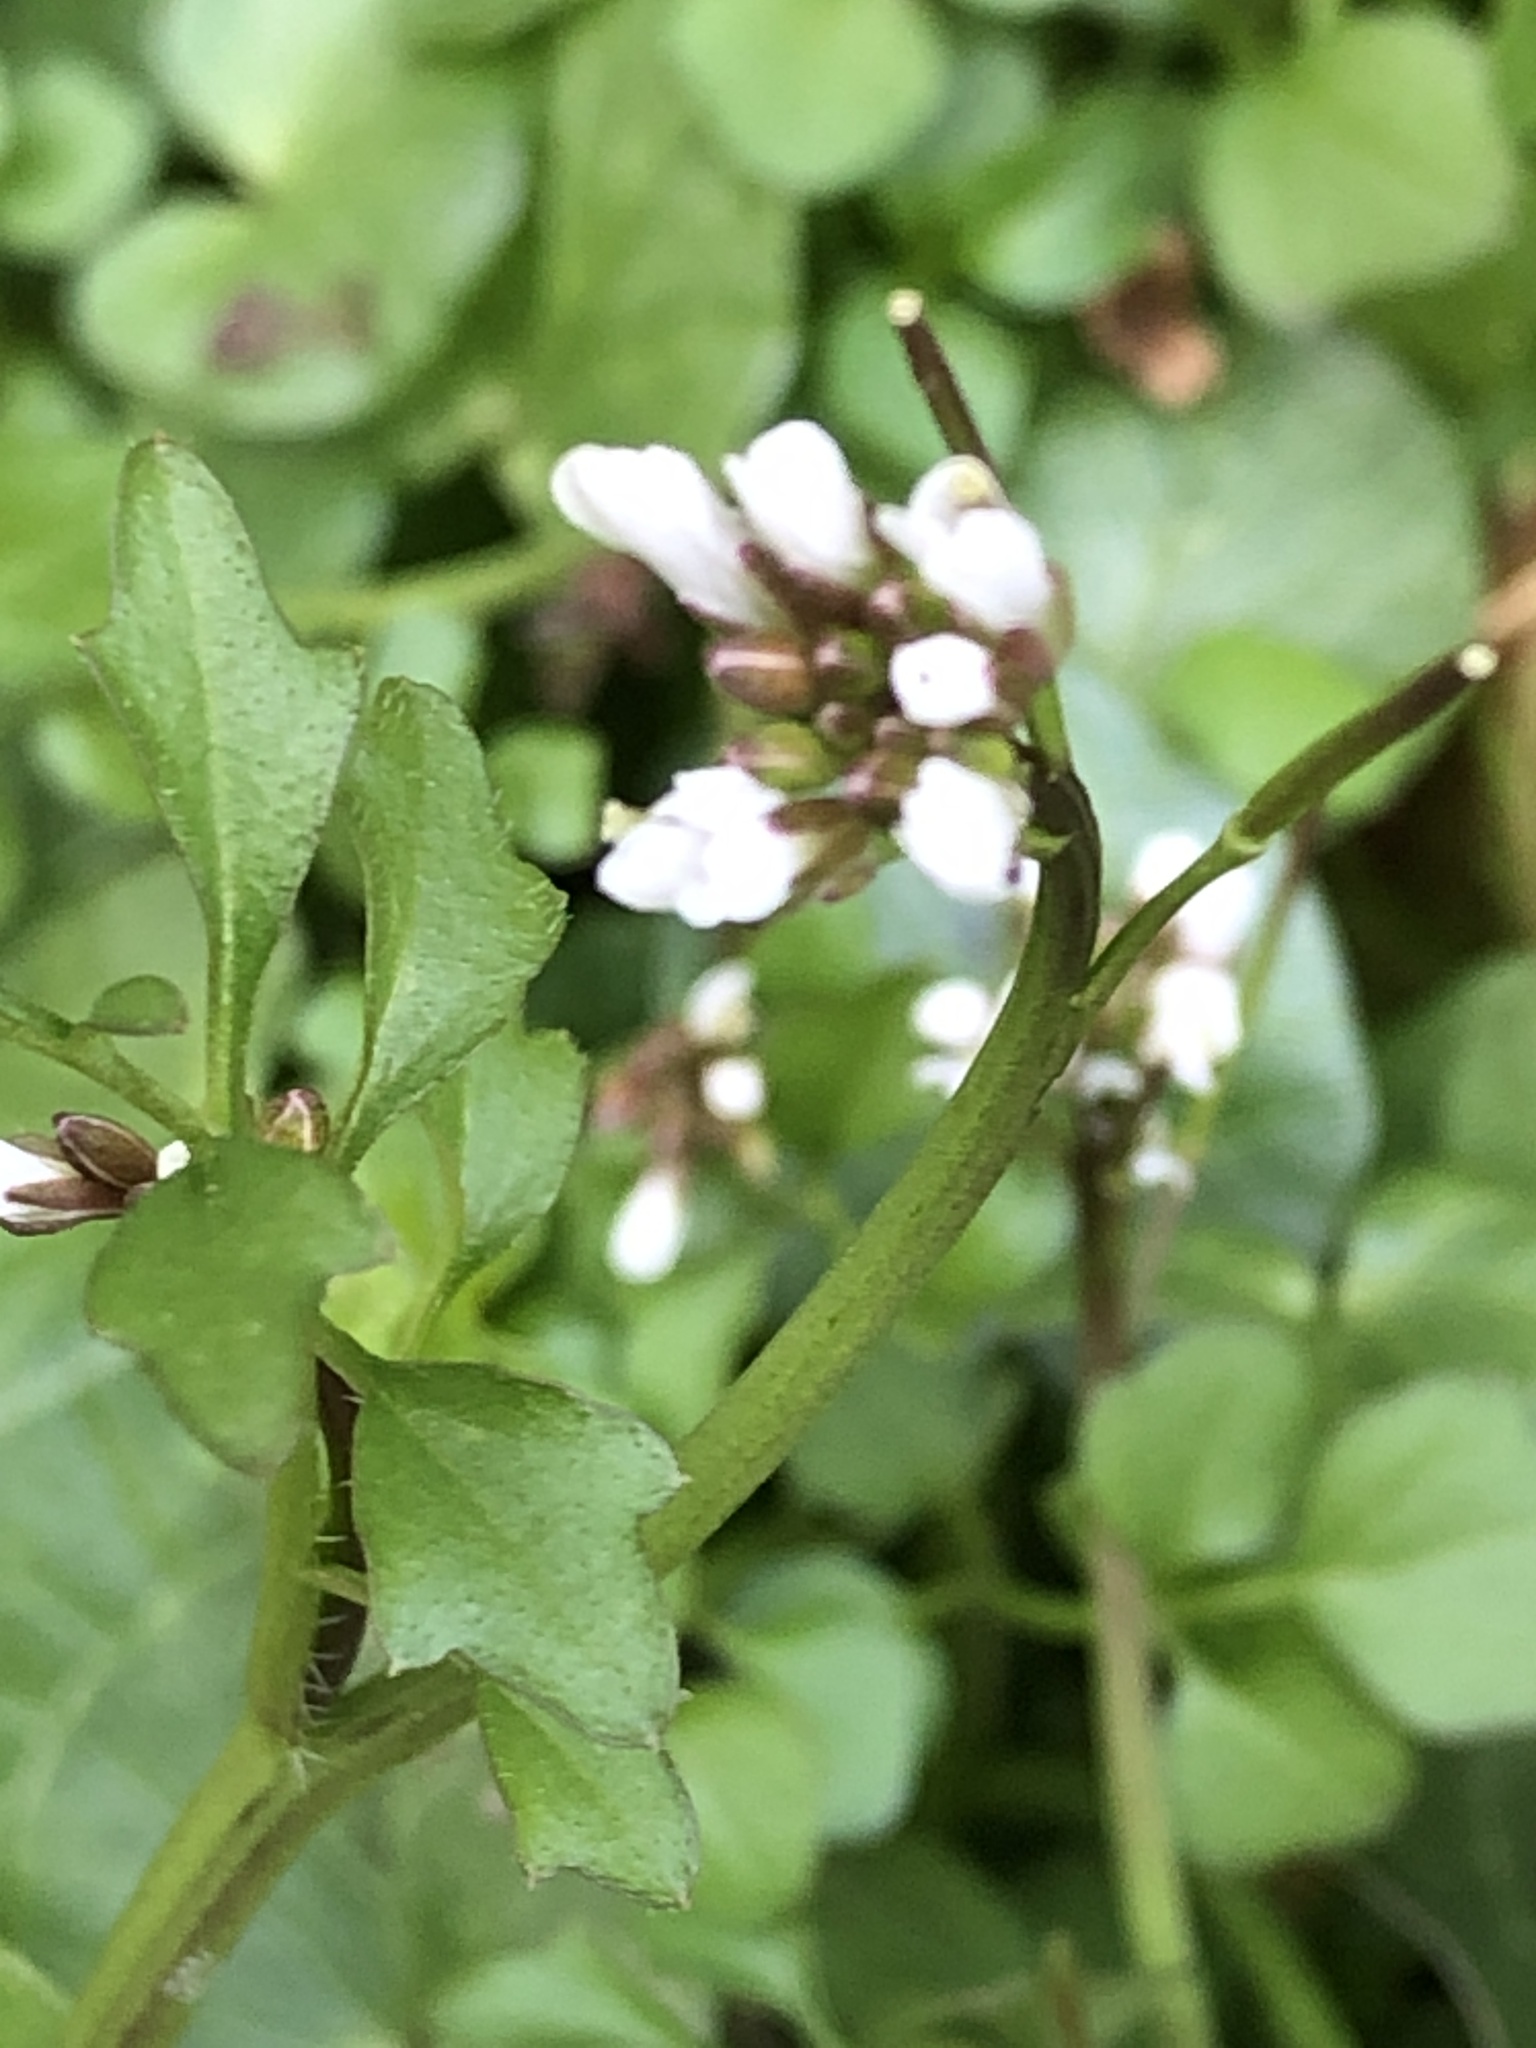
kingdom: Plantae
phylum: Tracheophyta
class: Magnoliopsida
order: Brassicales
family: Brassicaceae
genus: Cardamine
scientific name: Cardamine hirsuta
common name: Hairy bittercress
